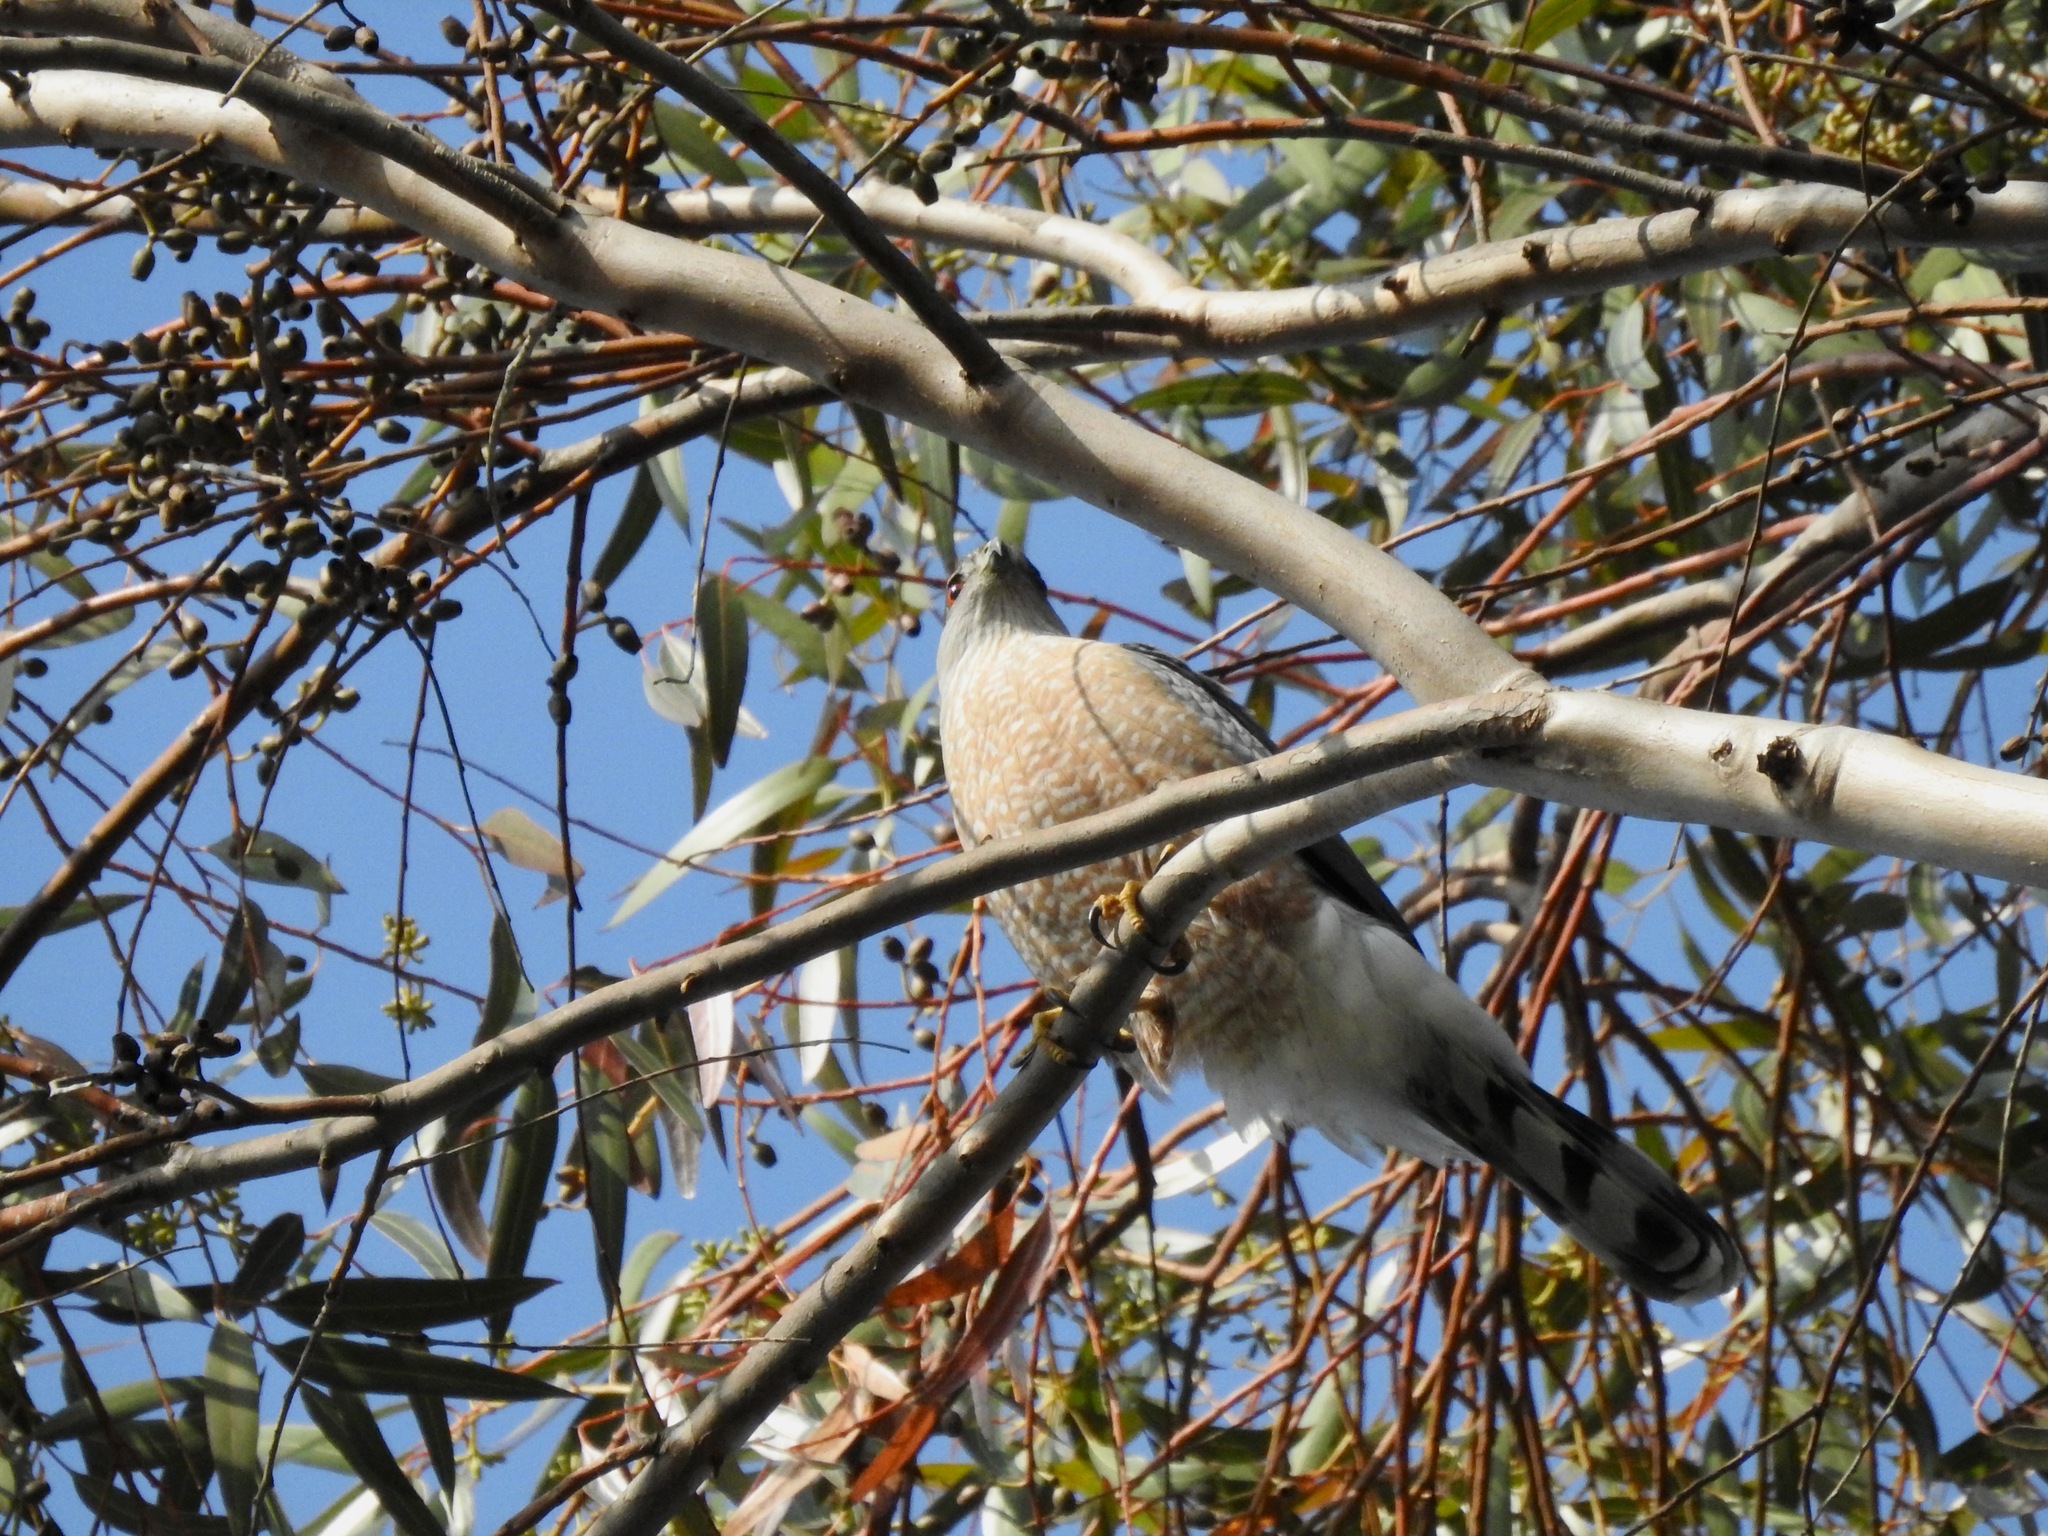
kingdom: Animalia
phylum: Chordata
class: Aves
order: Accipitriformes
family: Accipitridae
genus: Accipiter
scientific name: Accipiter cooperii
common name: Cooper's hawk
